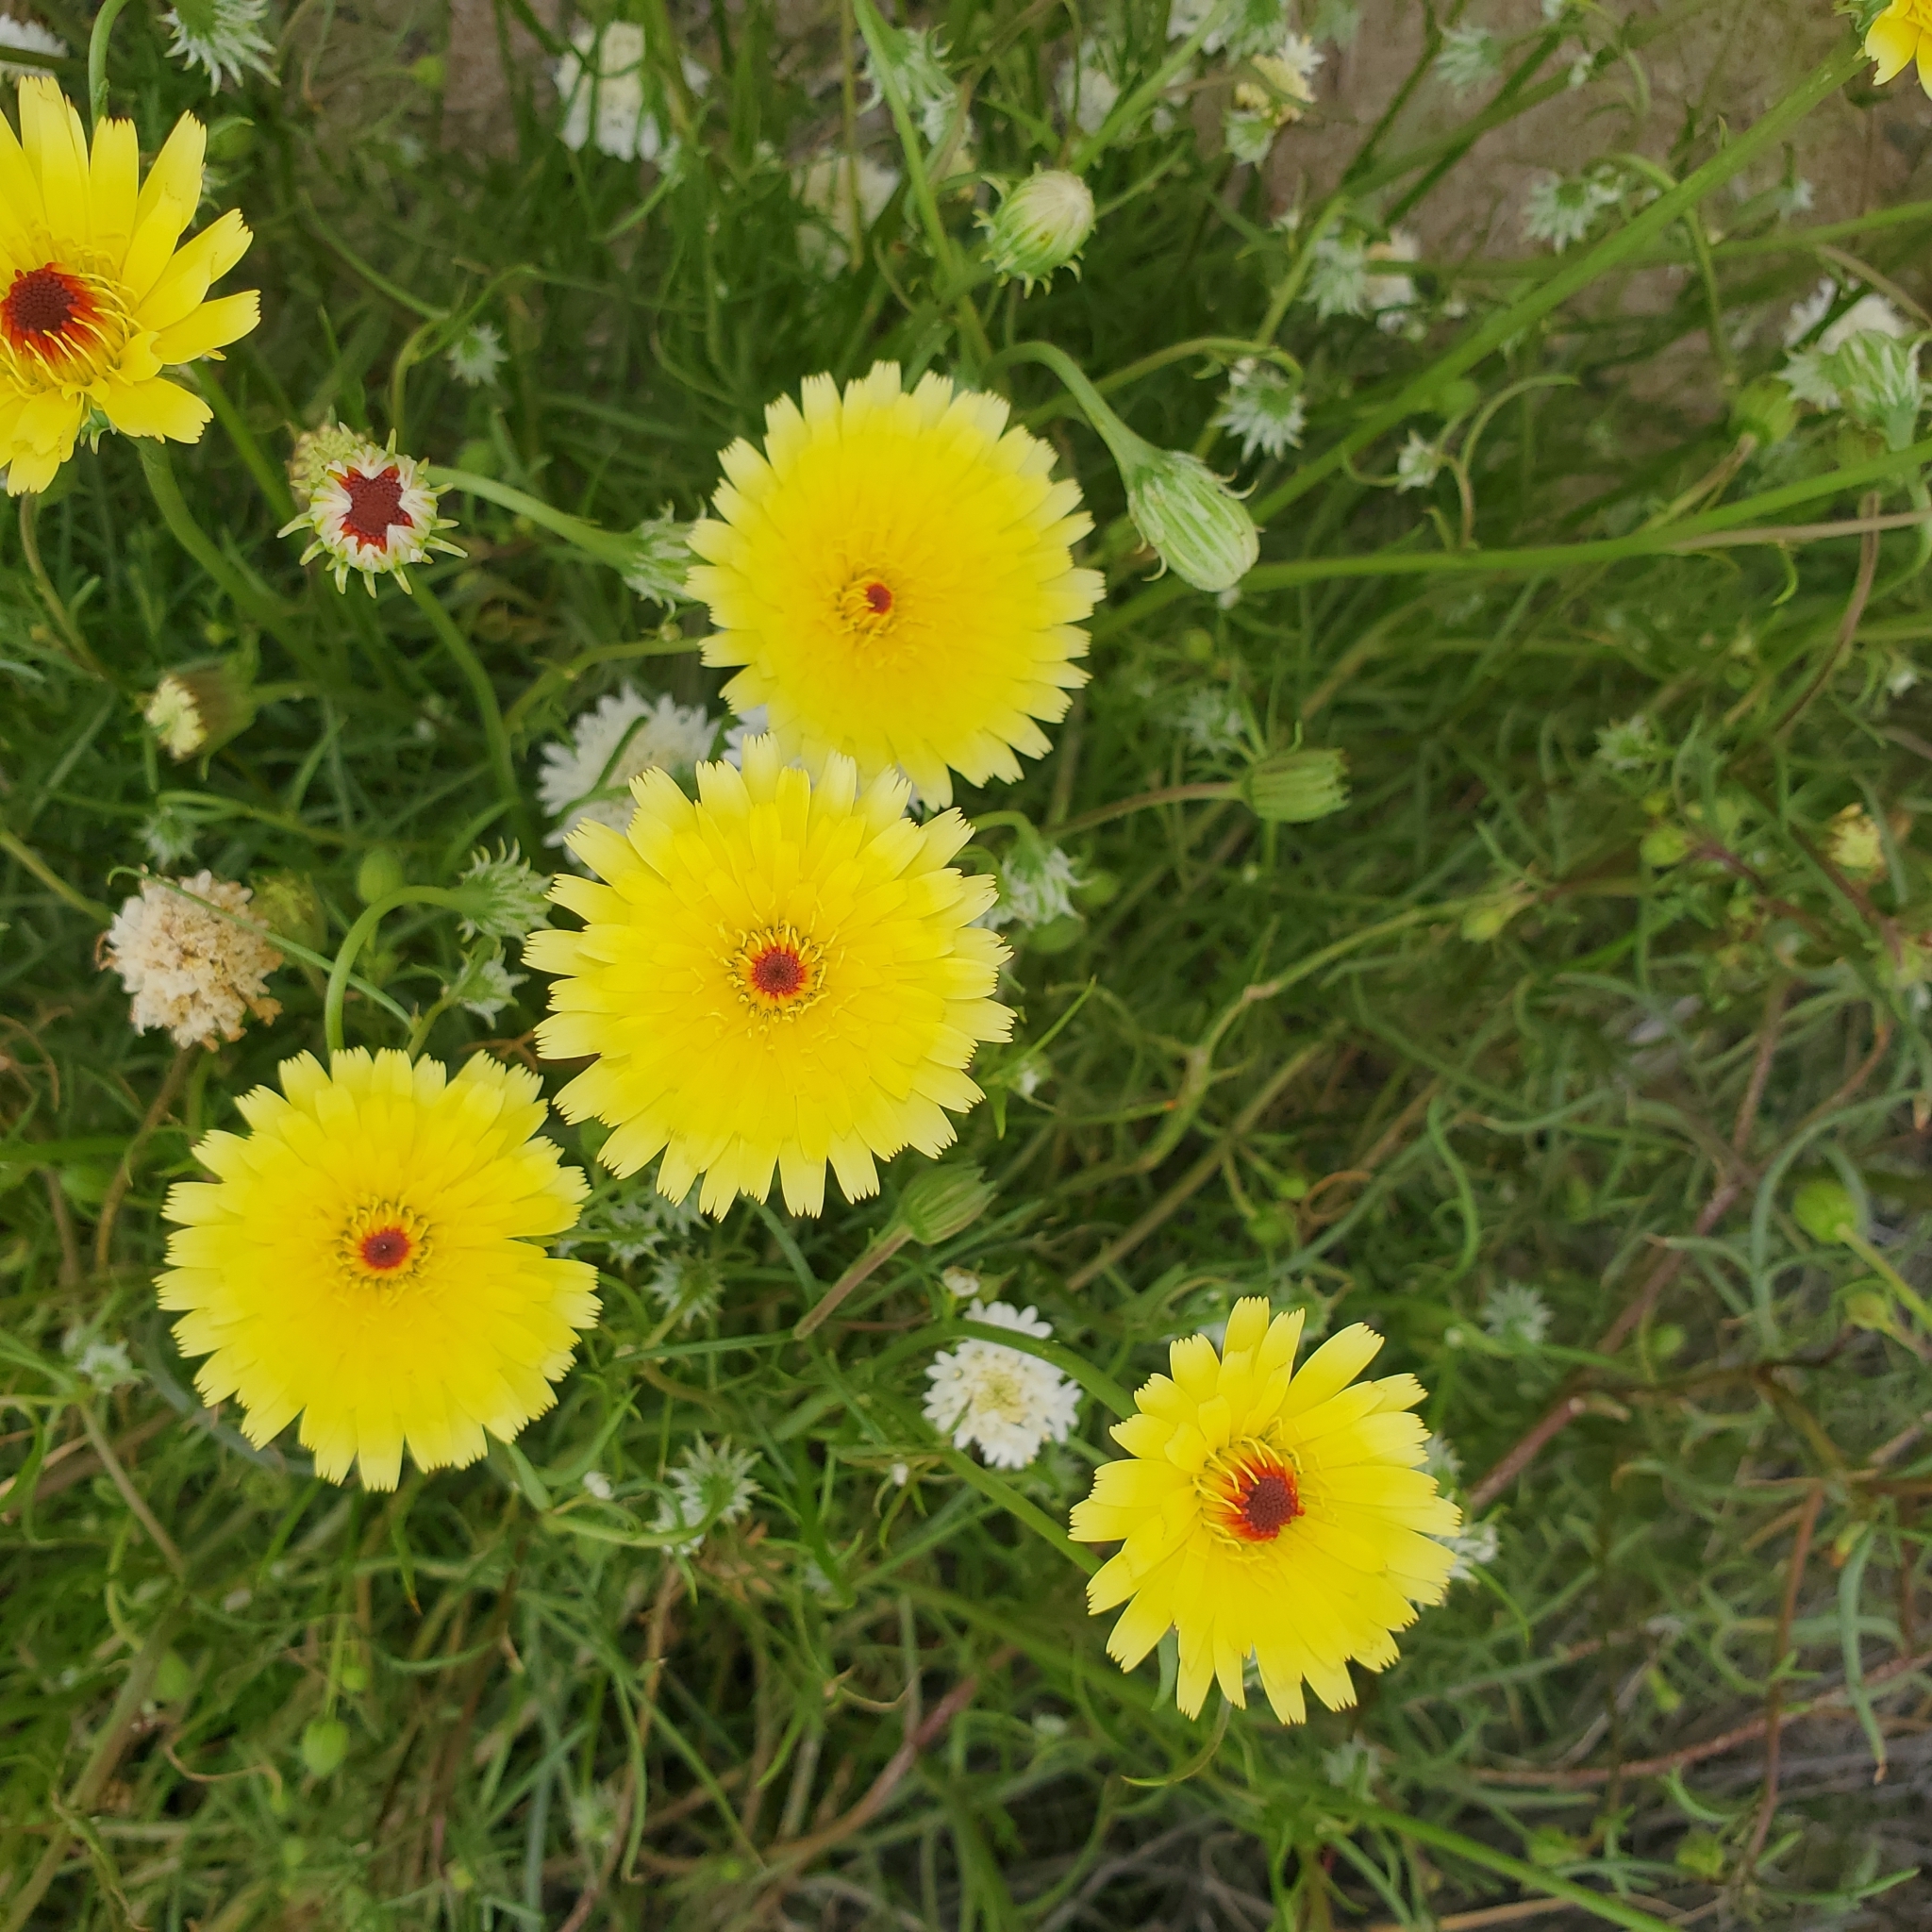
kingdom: Plantae
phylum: Tracheophyta
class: Magnoliopsida
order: Asterales
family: Asteraceae
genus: Malacothrix
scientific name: Malacothrix glabrata
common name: Smooth desert-dandelion
